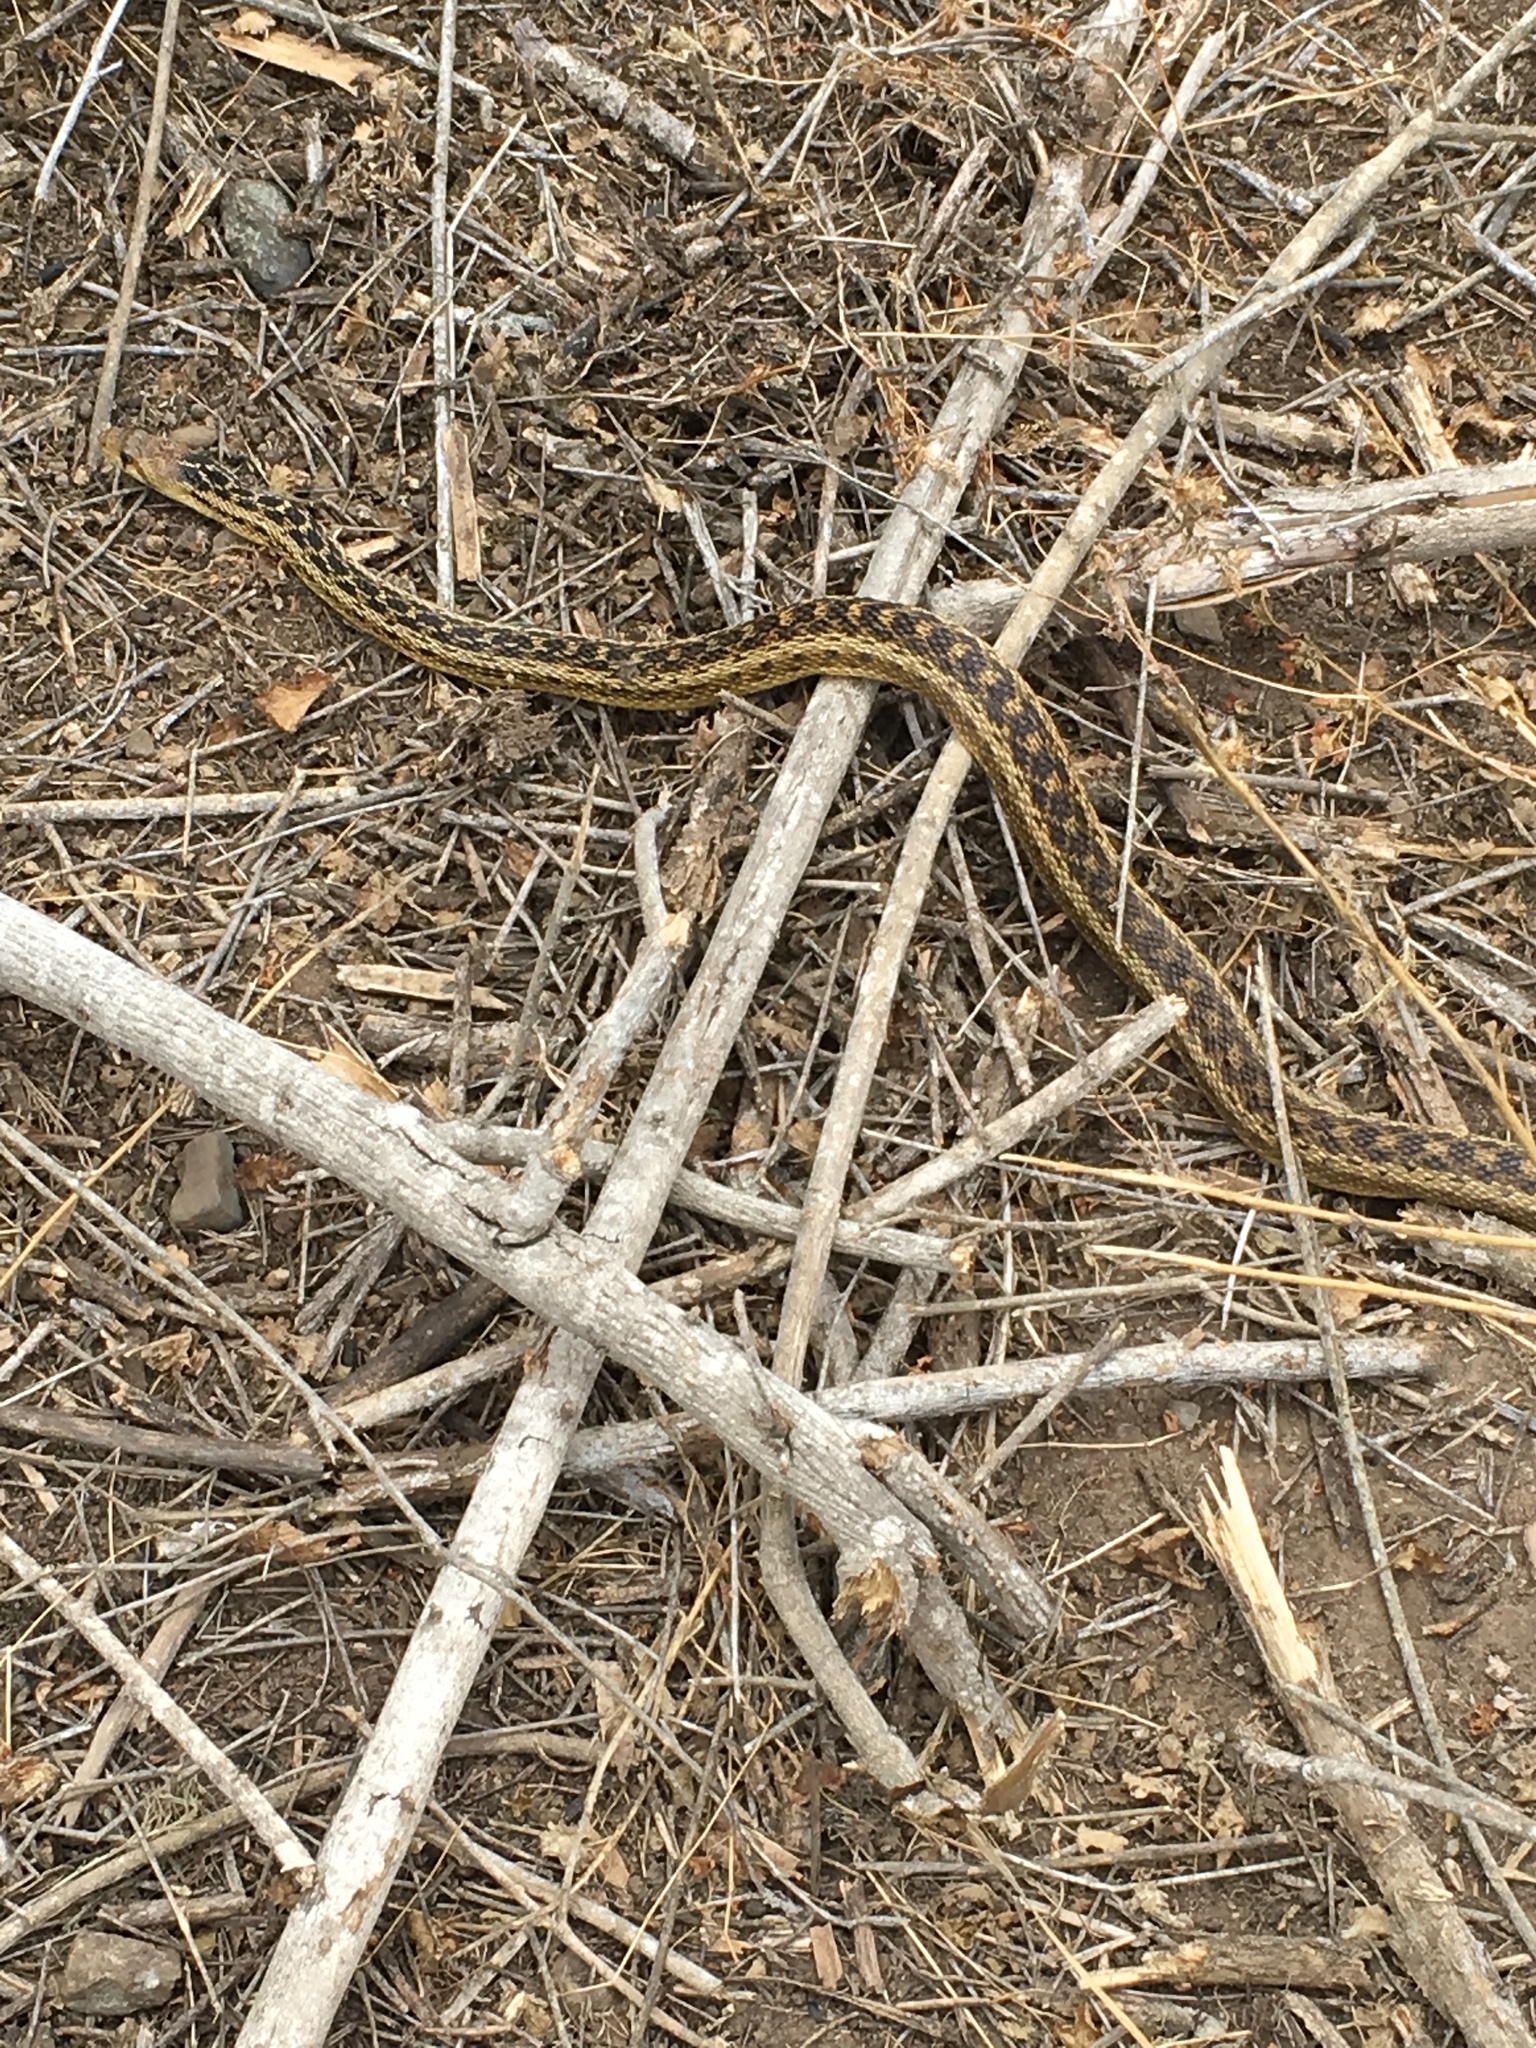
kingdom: Animalia
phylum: Chordata
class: Squamata
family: Colubridae
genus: Pituophis
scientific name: Pituophis catenifer
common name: Gopher snake
